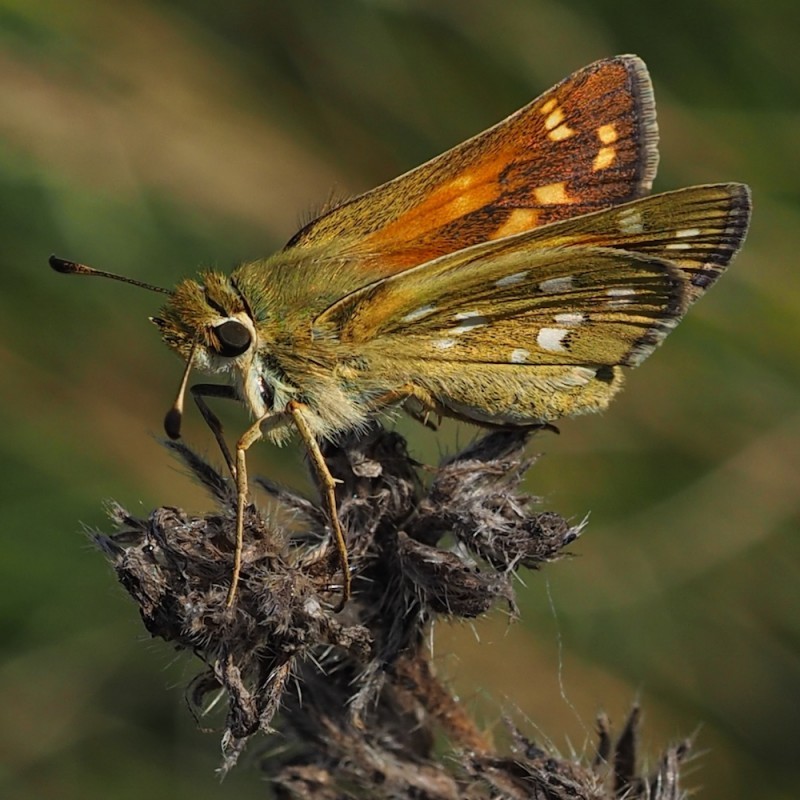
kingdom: Animalia
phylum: Arthropoda
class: Insecta
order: Lepidoptera
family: Hesperiidae
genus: Hesperia
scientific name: Hesperia comma
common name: Common branded skipper
